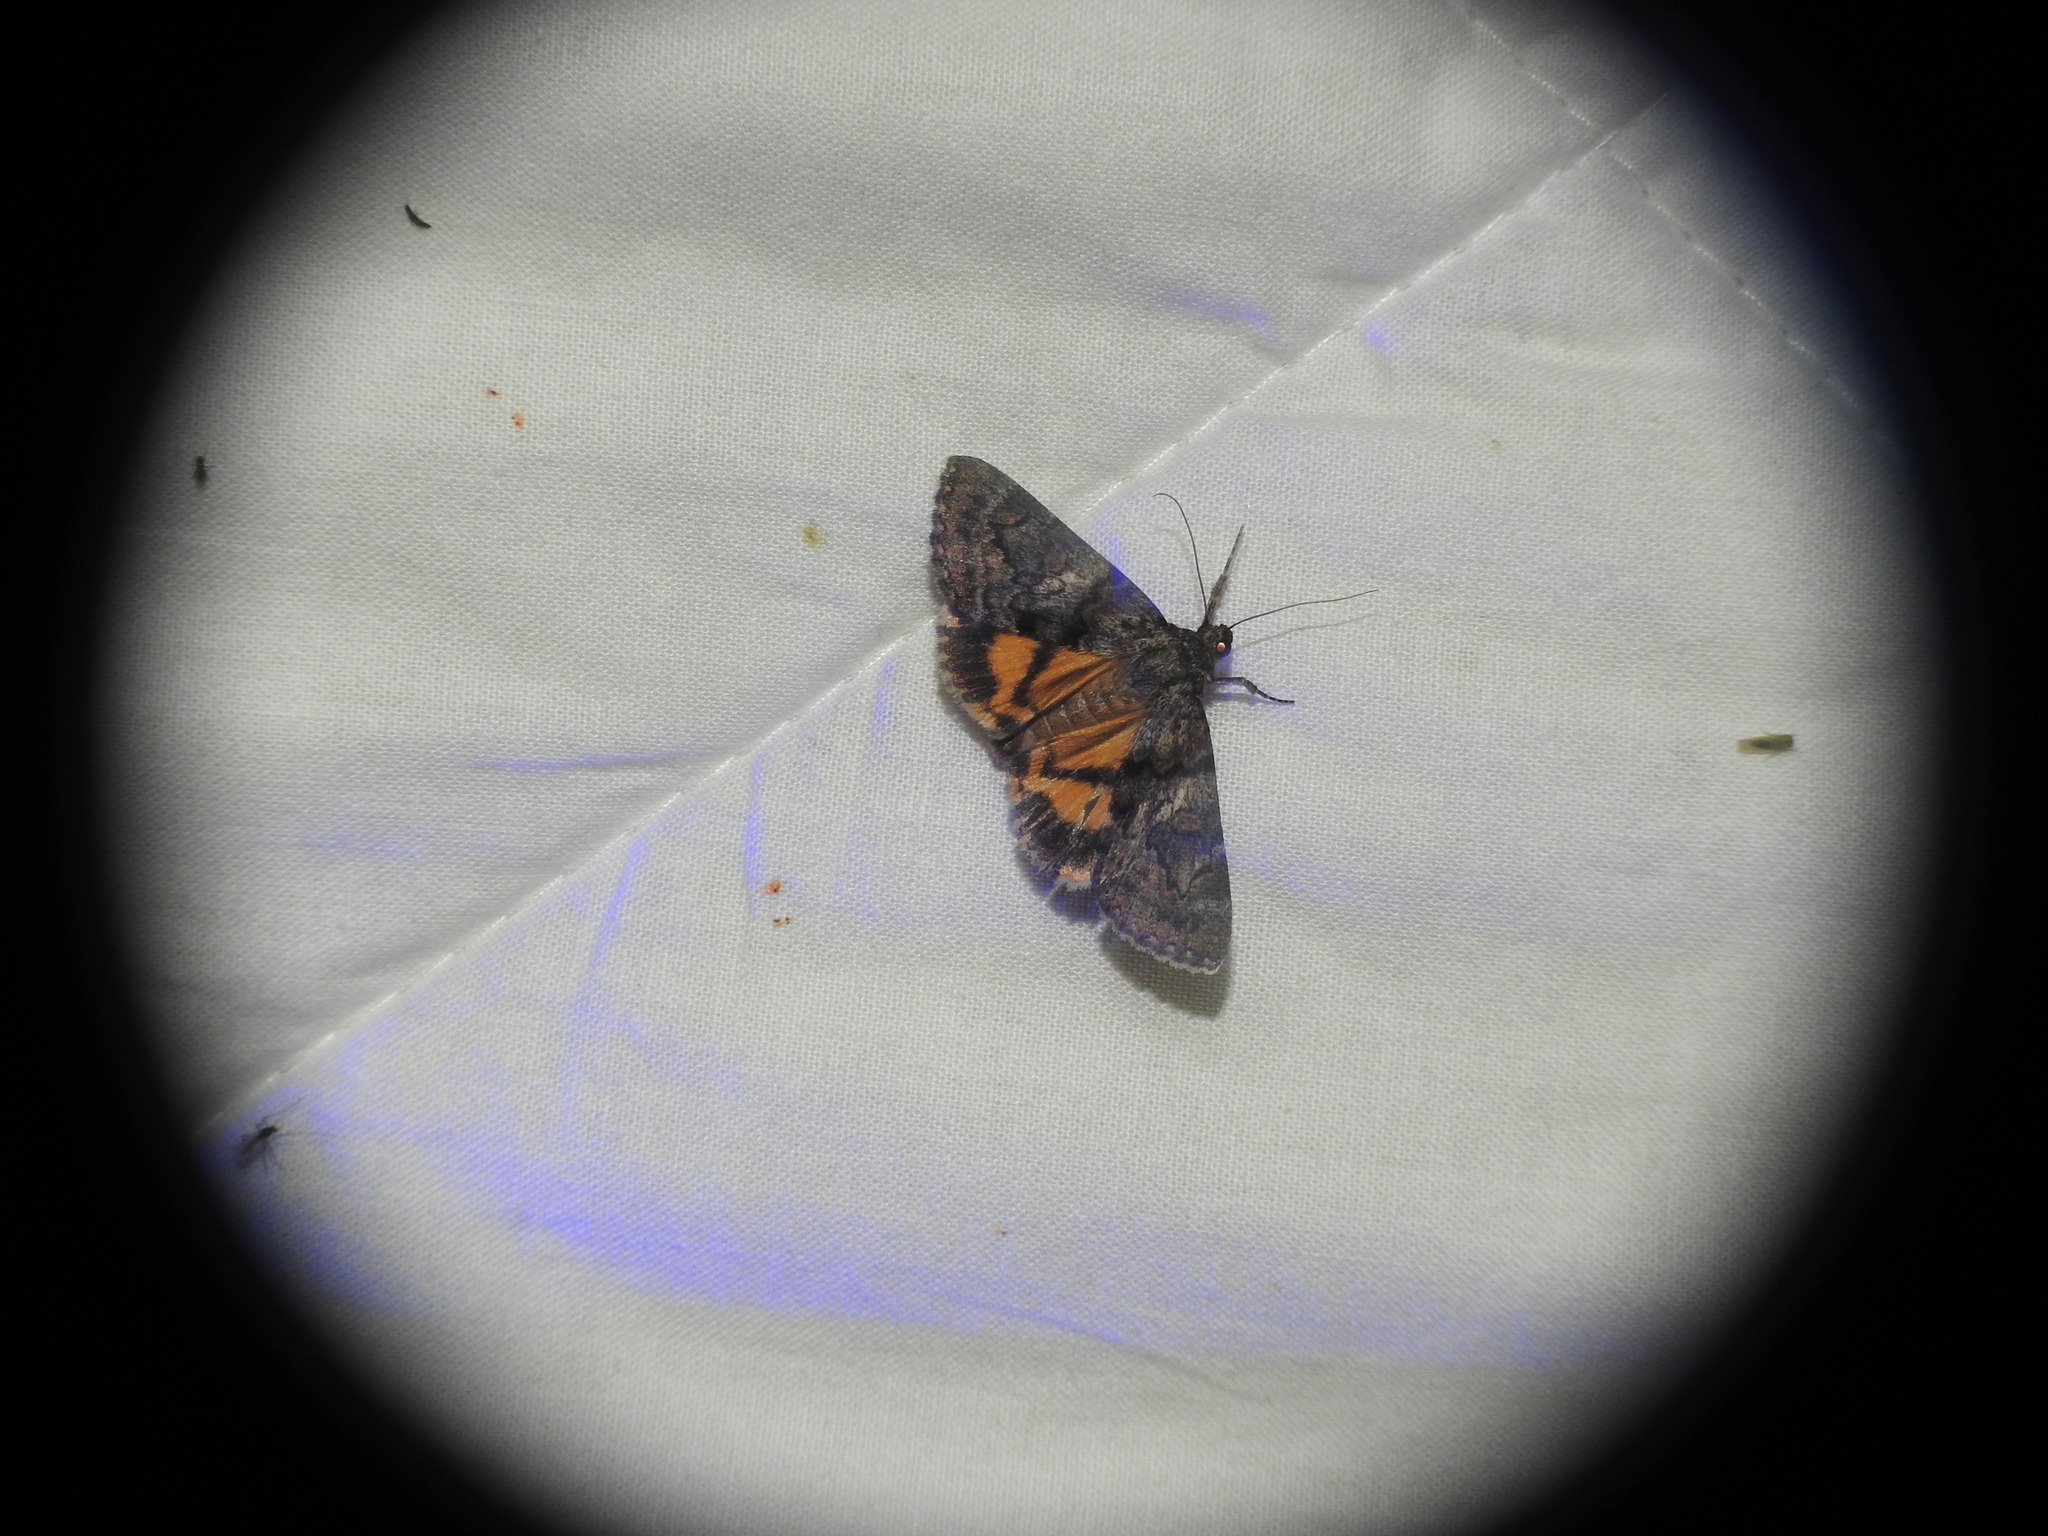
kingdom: Animalia
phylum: Arthropoda
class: Insecta
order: Lepidoptera
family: Erebidae
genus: Catocala
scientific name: Catocala nymphaea
